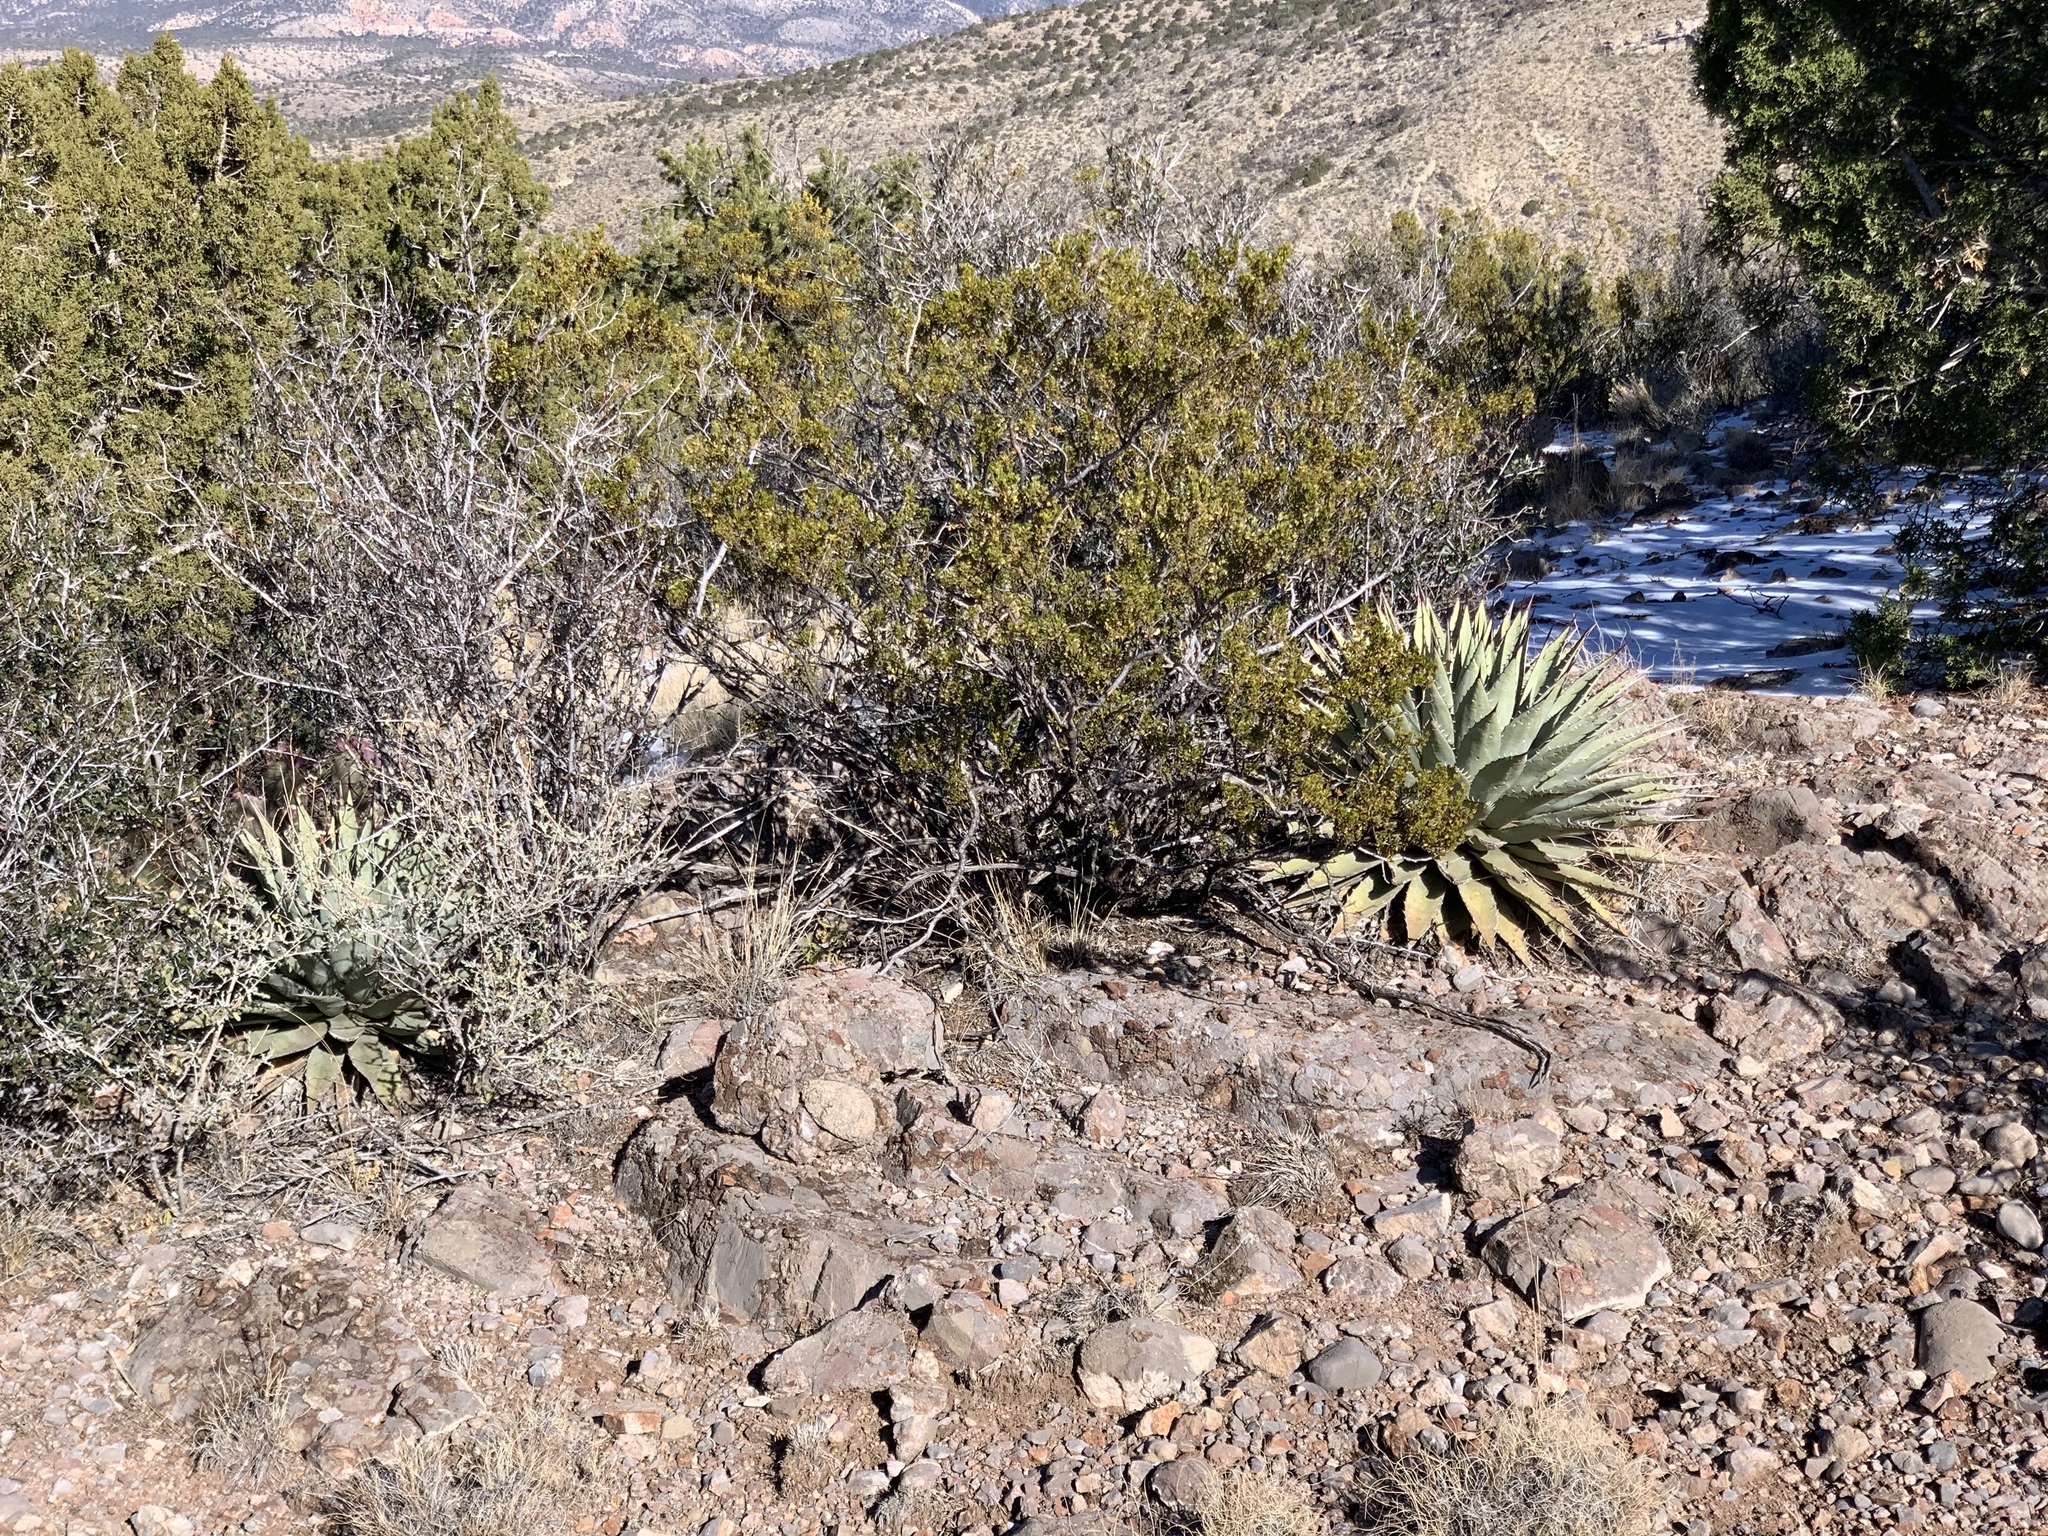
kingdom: Plantae
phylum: Tracheophyta
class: Magnoliopsida
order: Zygophyllales
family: Zygophyllaceae
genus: Larrea
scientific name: Larrea tridentata
